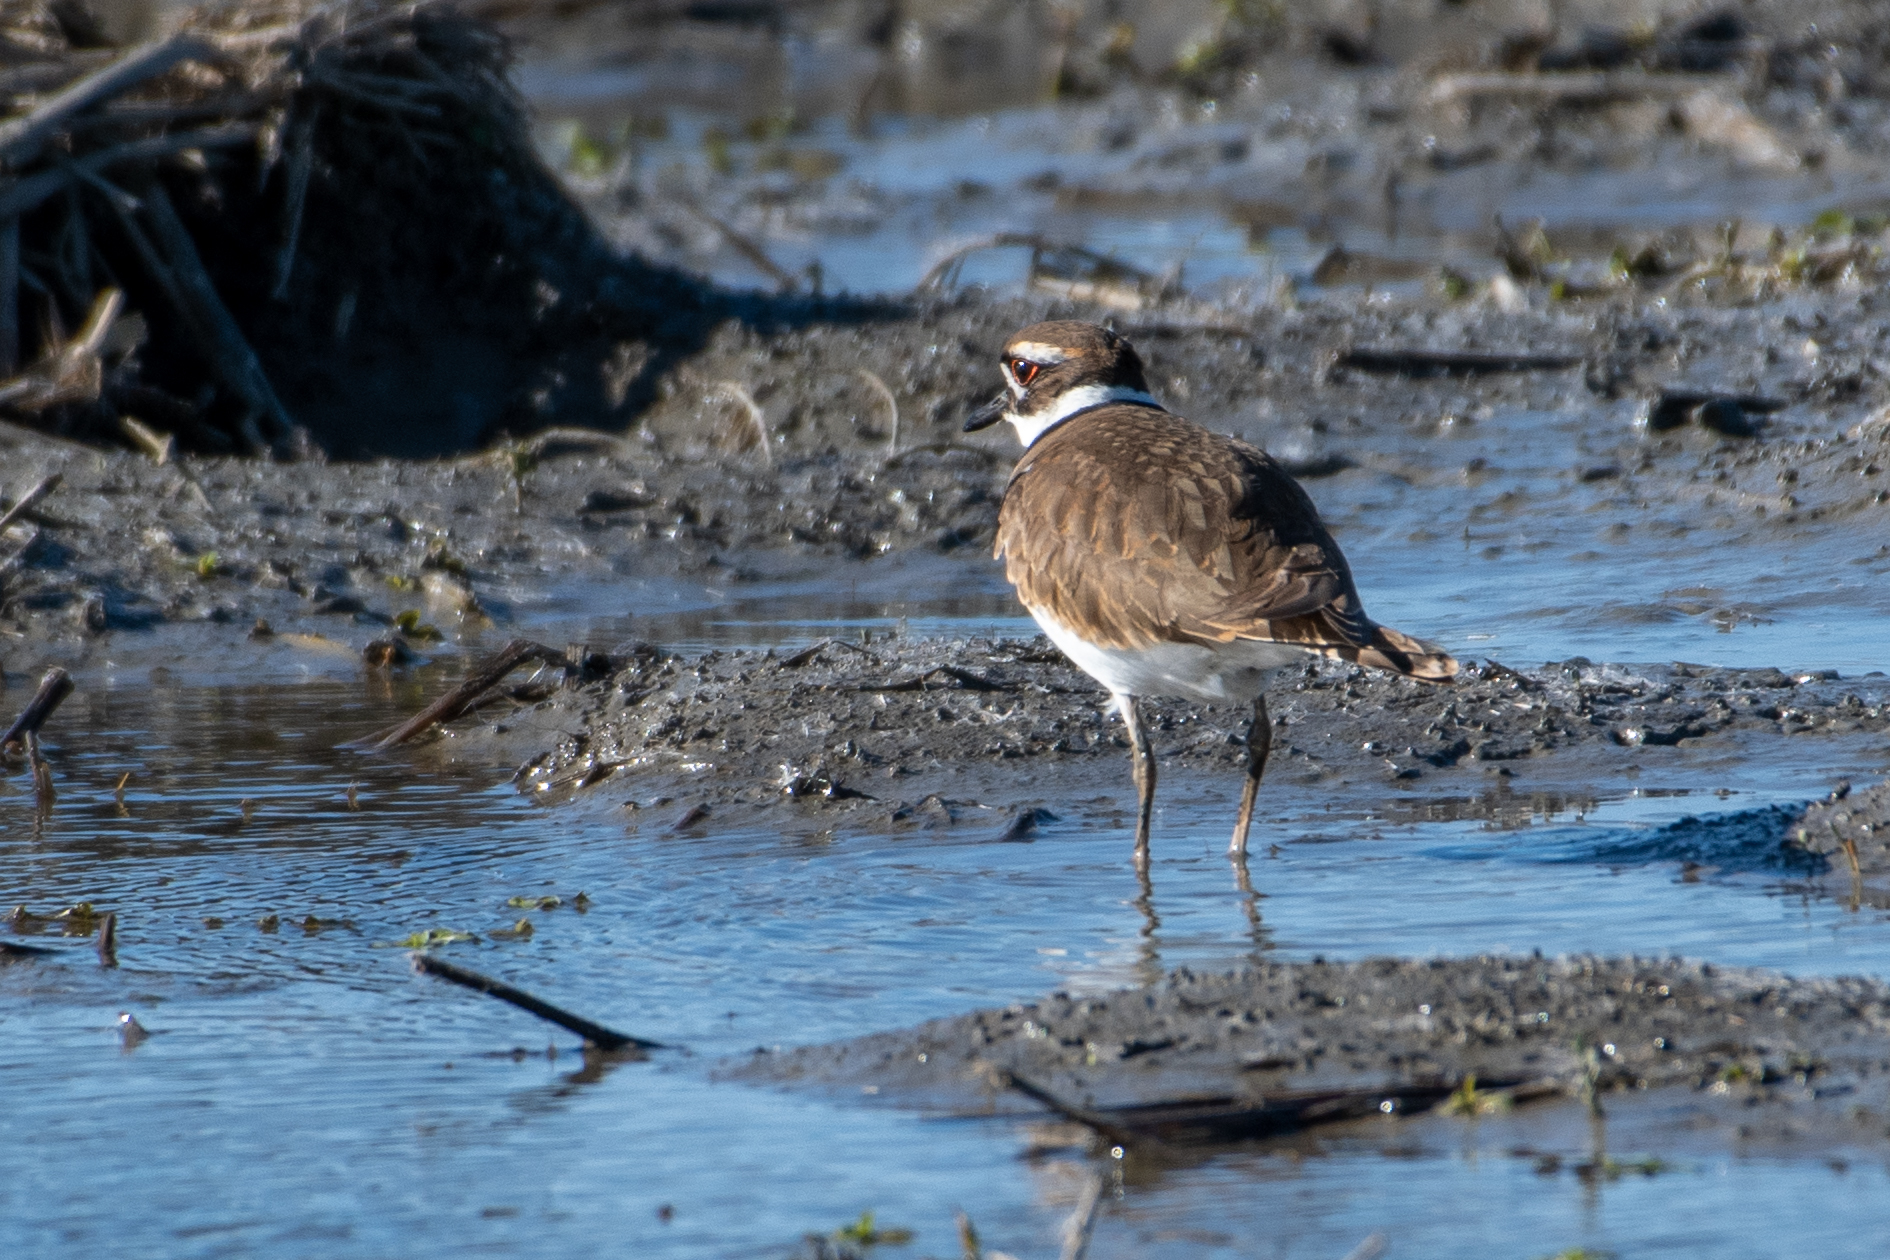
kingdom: Animalia
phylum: Chordata
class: Aves
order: Charadriiformes
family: Charadriidae
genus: Charadrius
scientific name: Charadrius vociferus
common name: Killdeer
